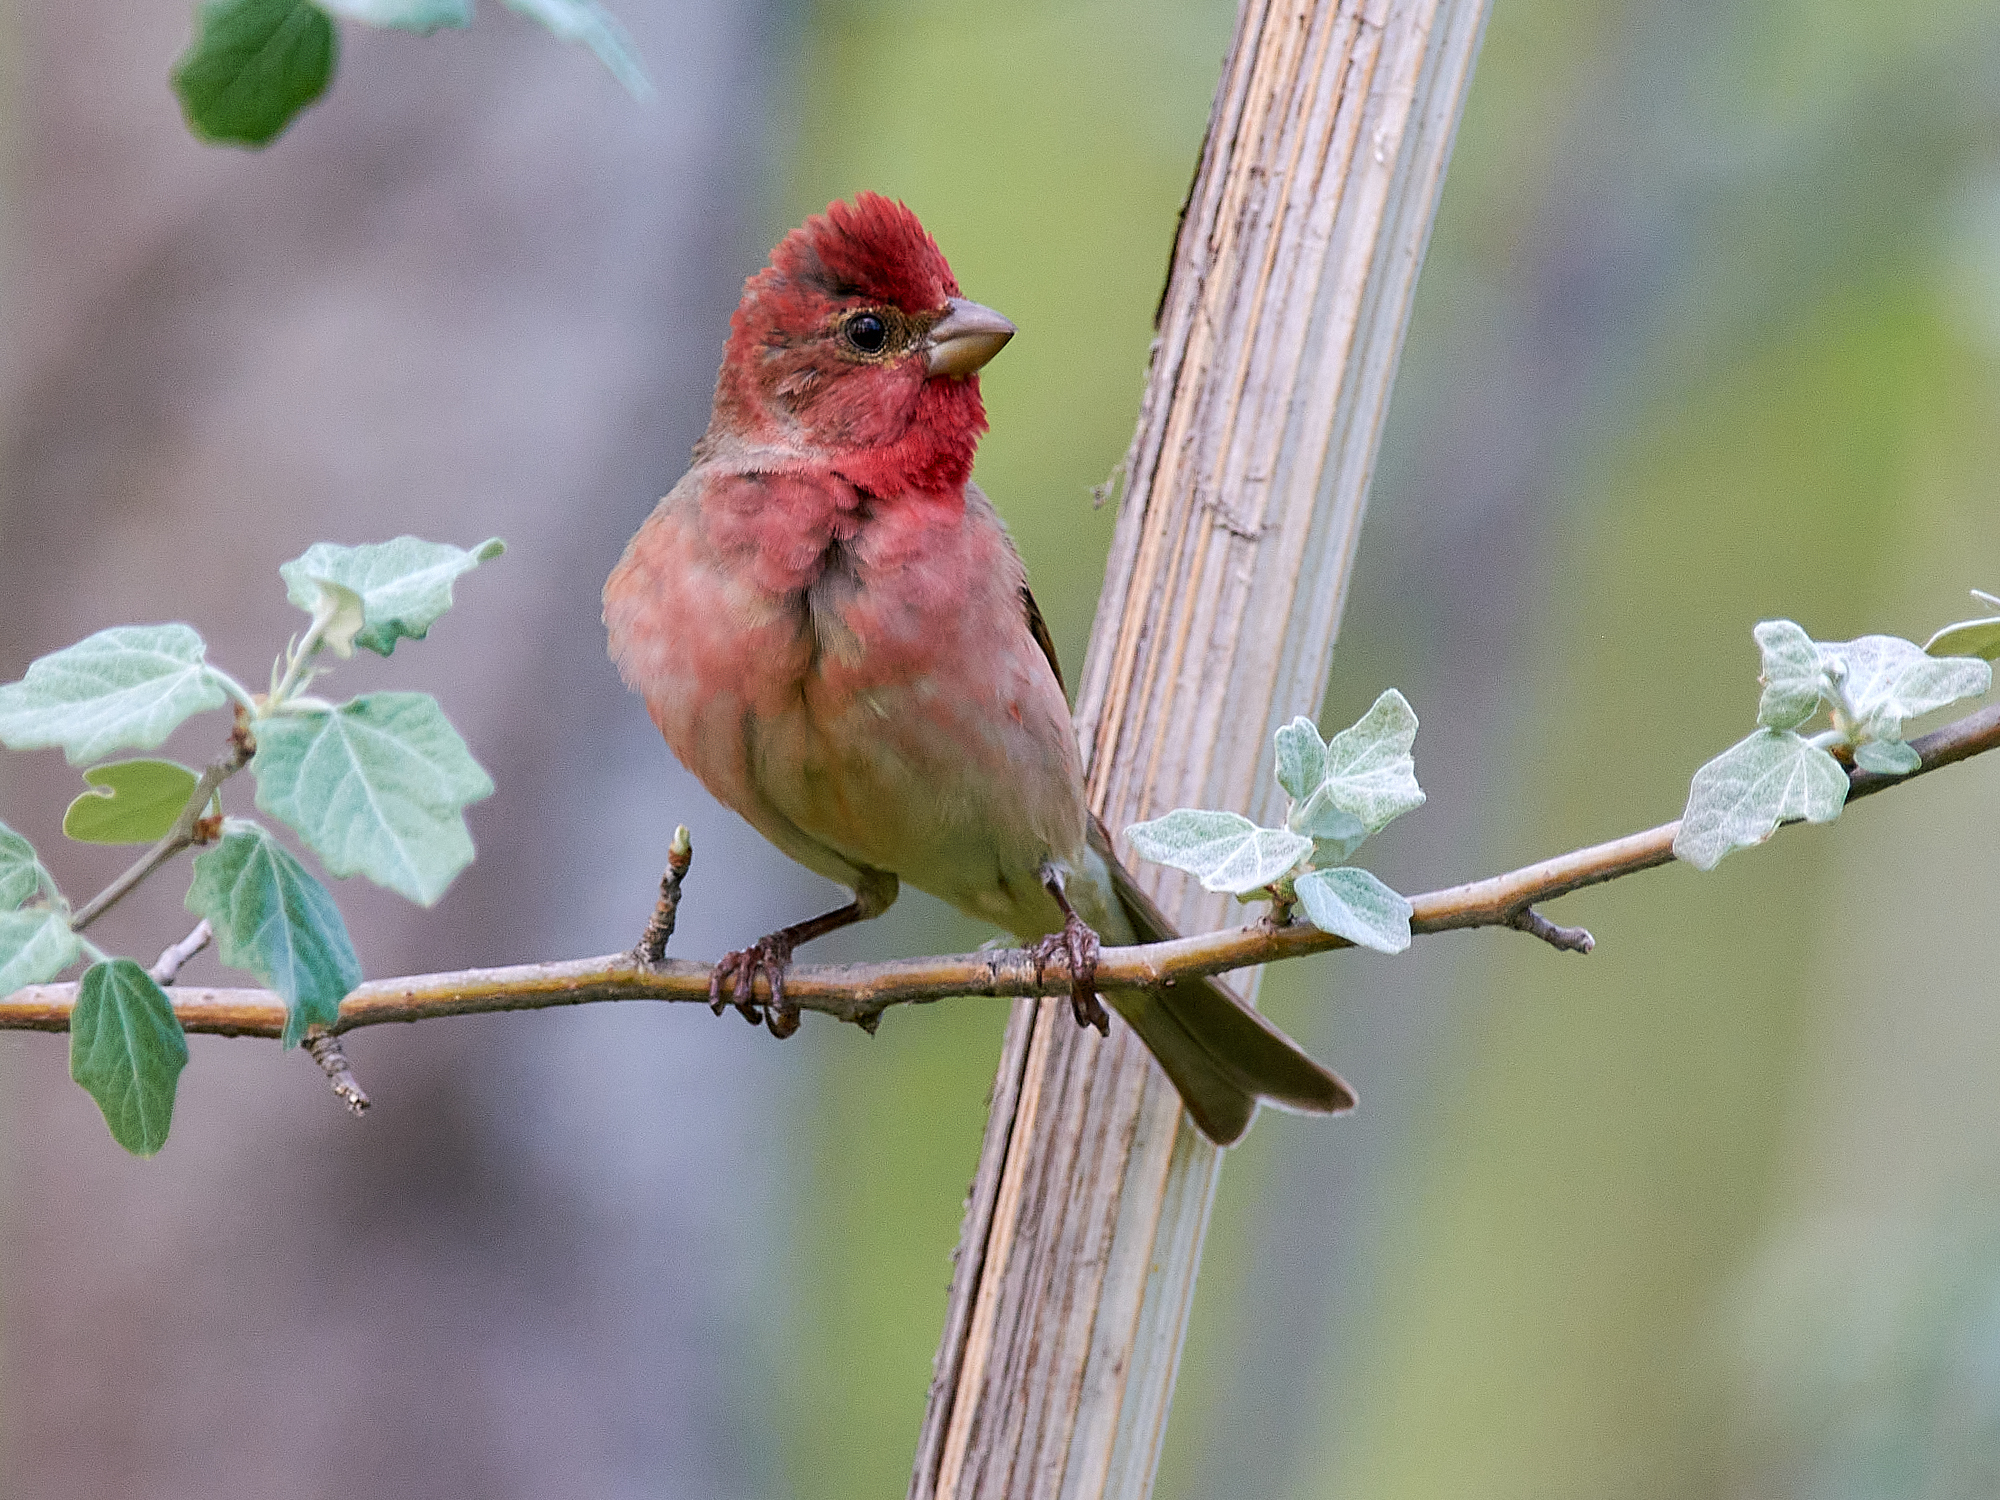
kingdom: Animalia
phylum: Chordata
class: Aves
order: Passeriformes
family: Fringillidae
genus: Carpodacus
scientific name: Carpodacus erythrinus
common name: Common rosefinch
